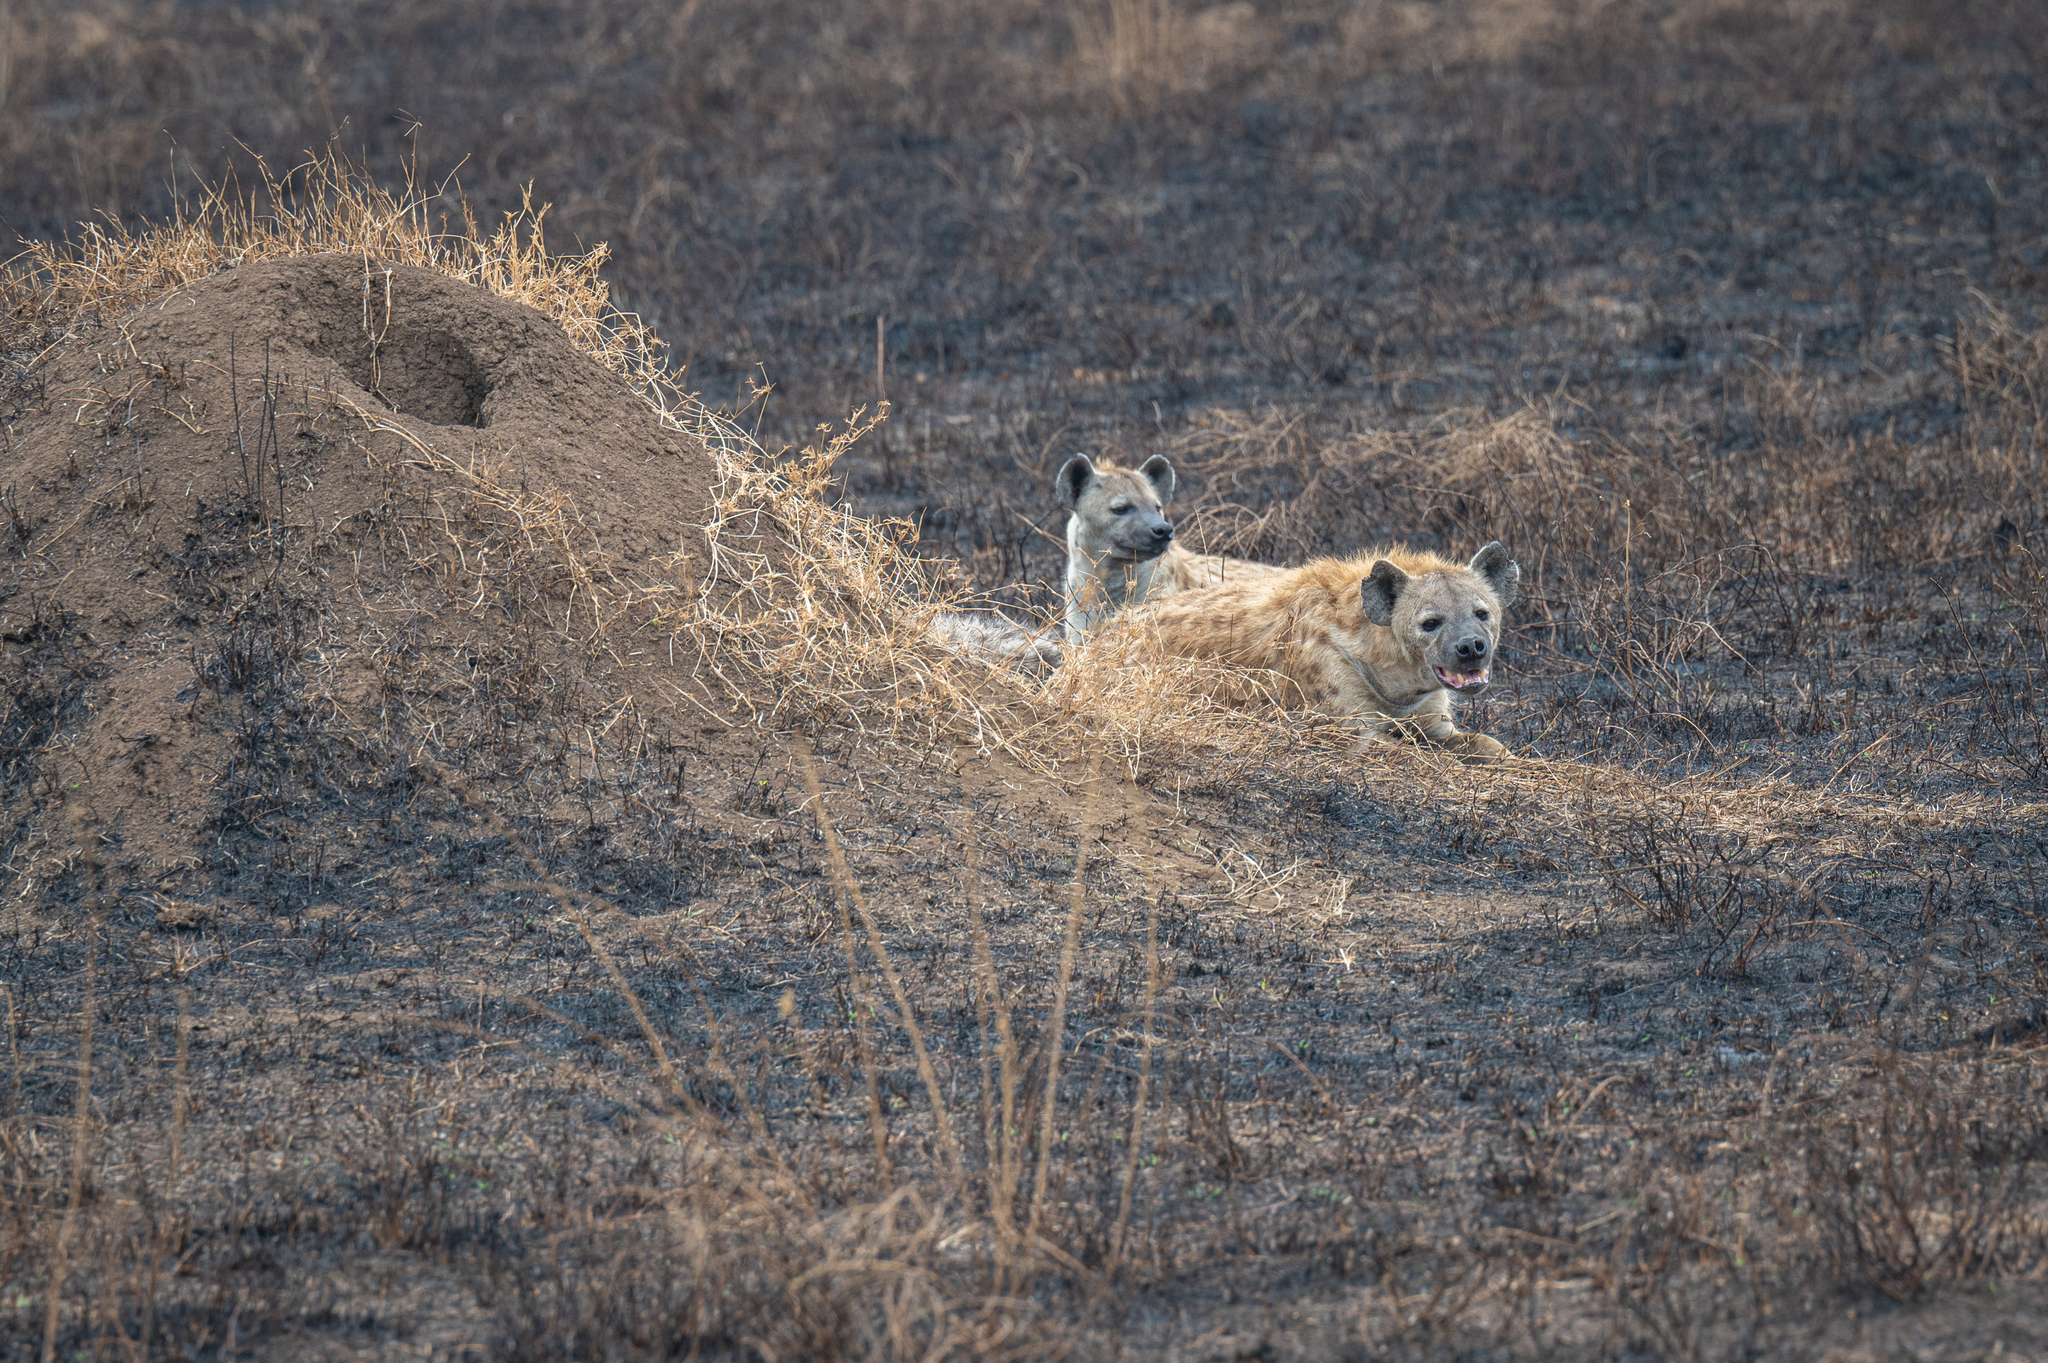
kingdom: Animalia
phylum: Chordata
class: Mammalia
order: Carnivora
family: Hyaenidae
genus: Crocuta
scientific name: Crocuta crocuta
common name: Spotted hyaena
